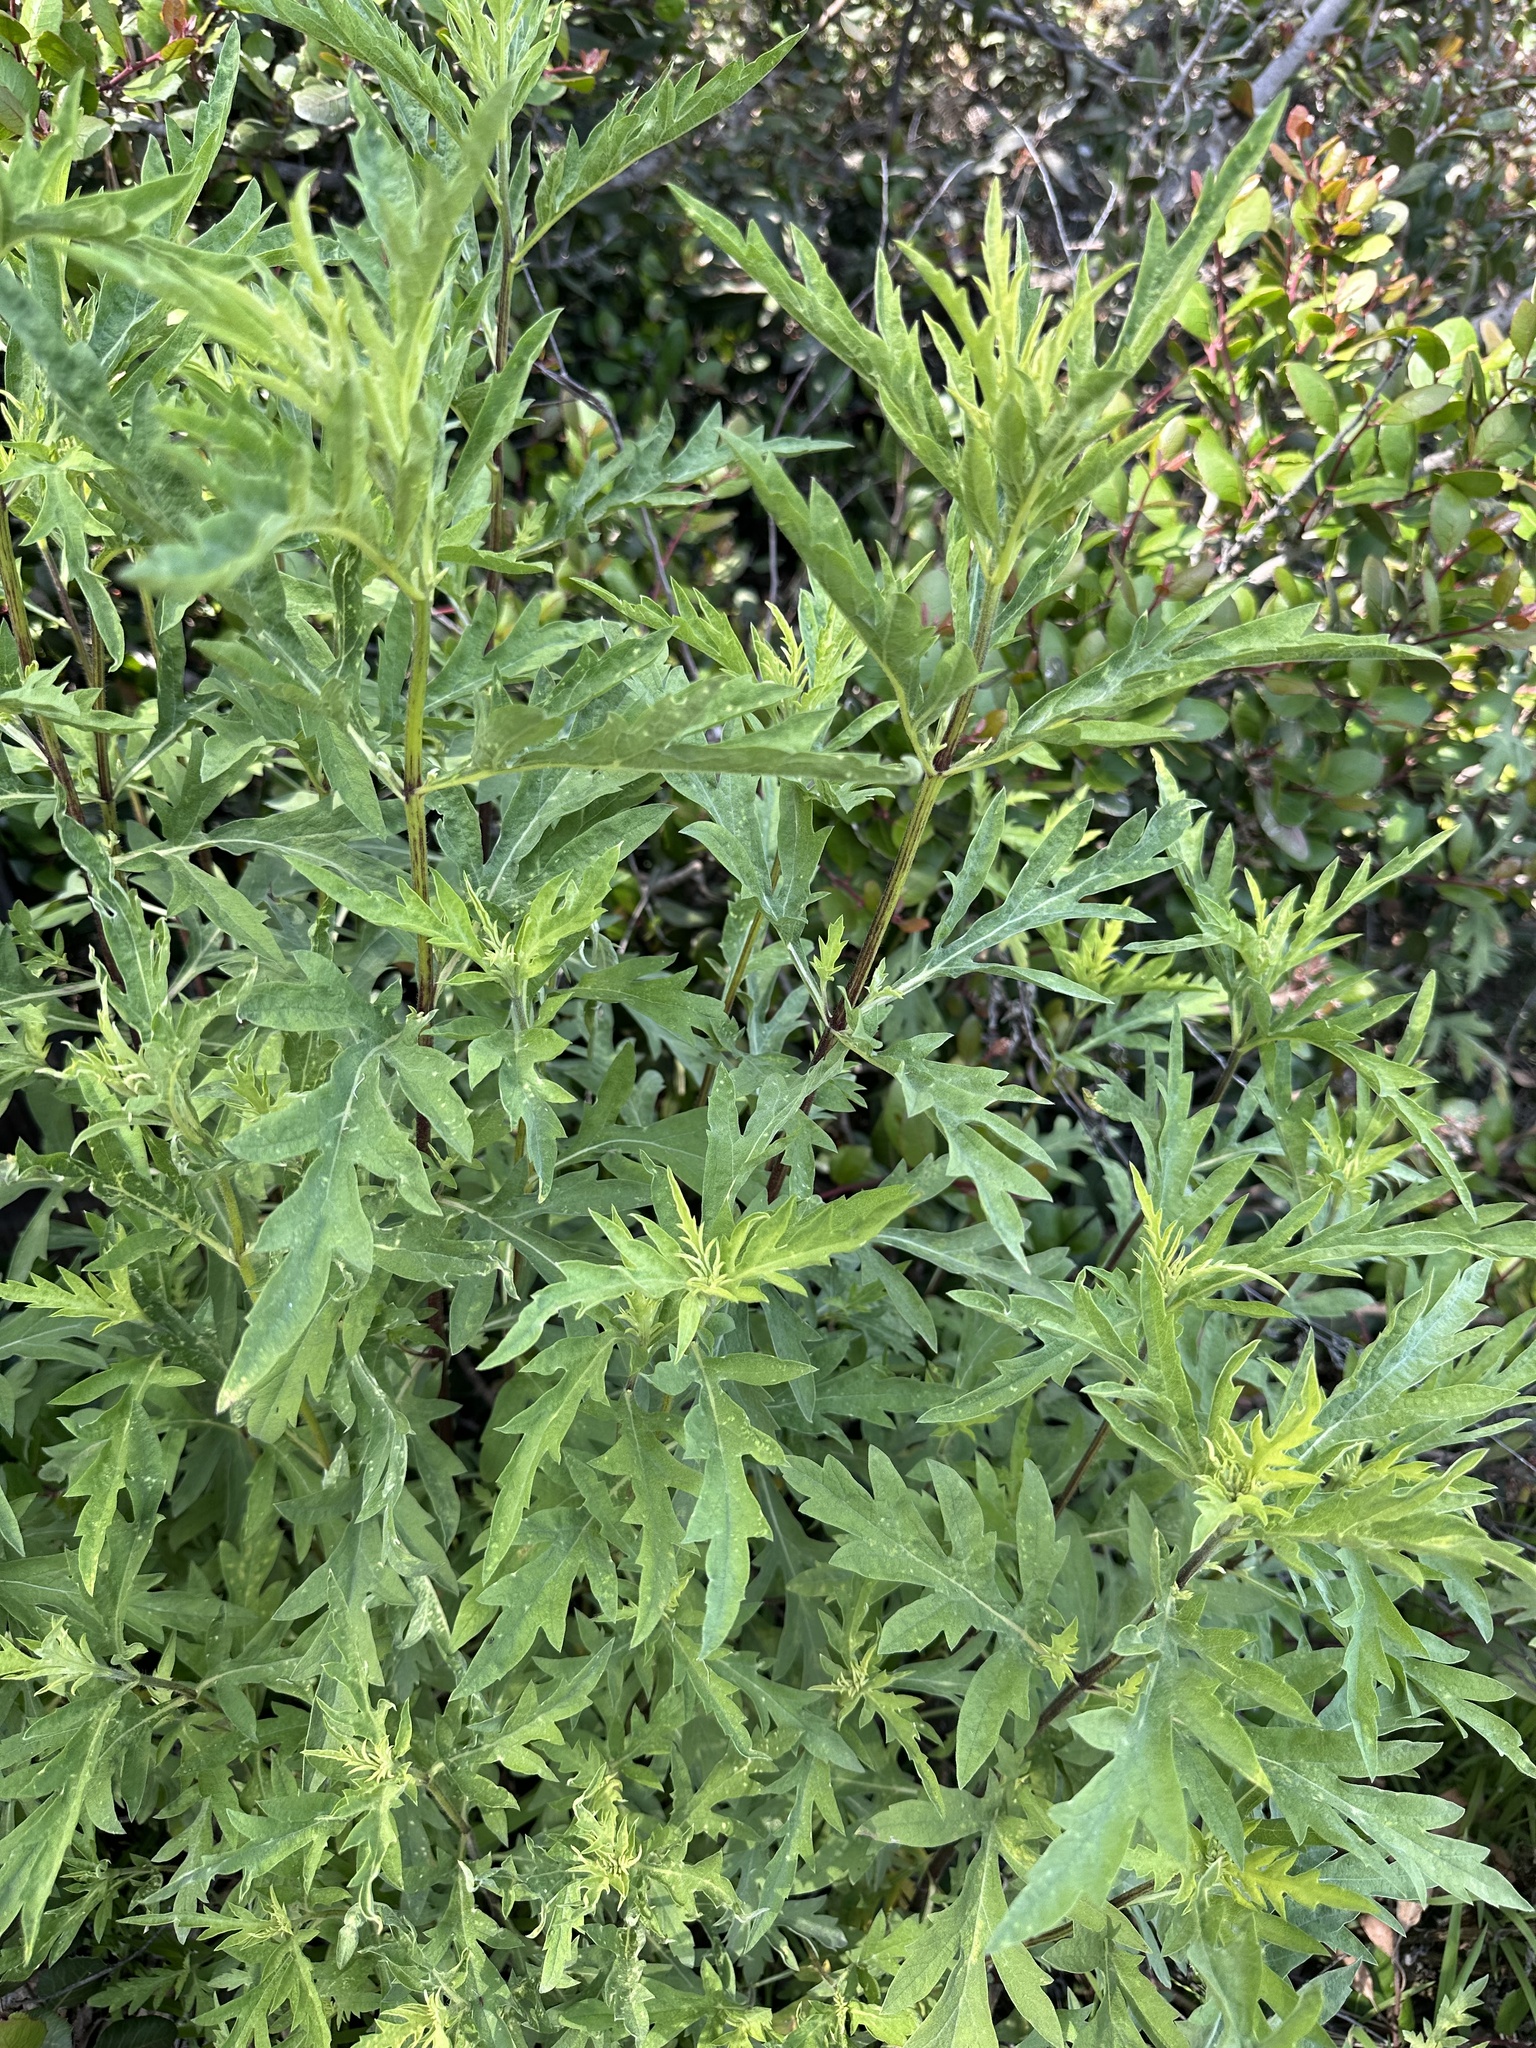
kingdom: Plantae
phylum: Tracheophyta
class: Magnoliopsida
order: Asterales
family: Asteraceae
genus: Ambrosia
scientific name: Ambrosia psilostachya
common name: Perennial ragweed
